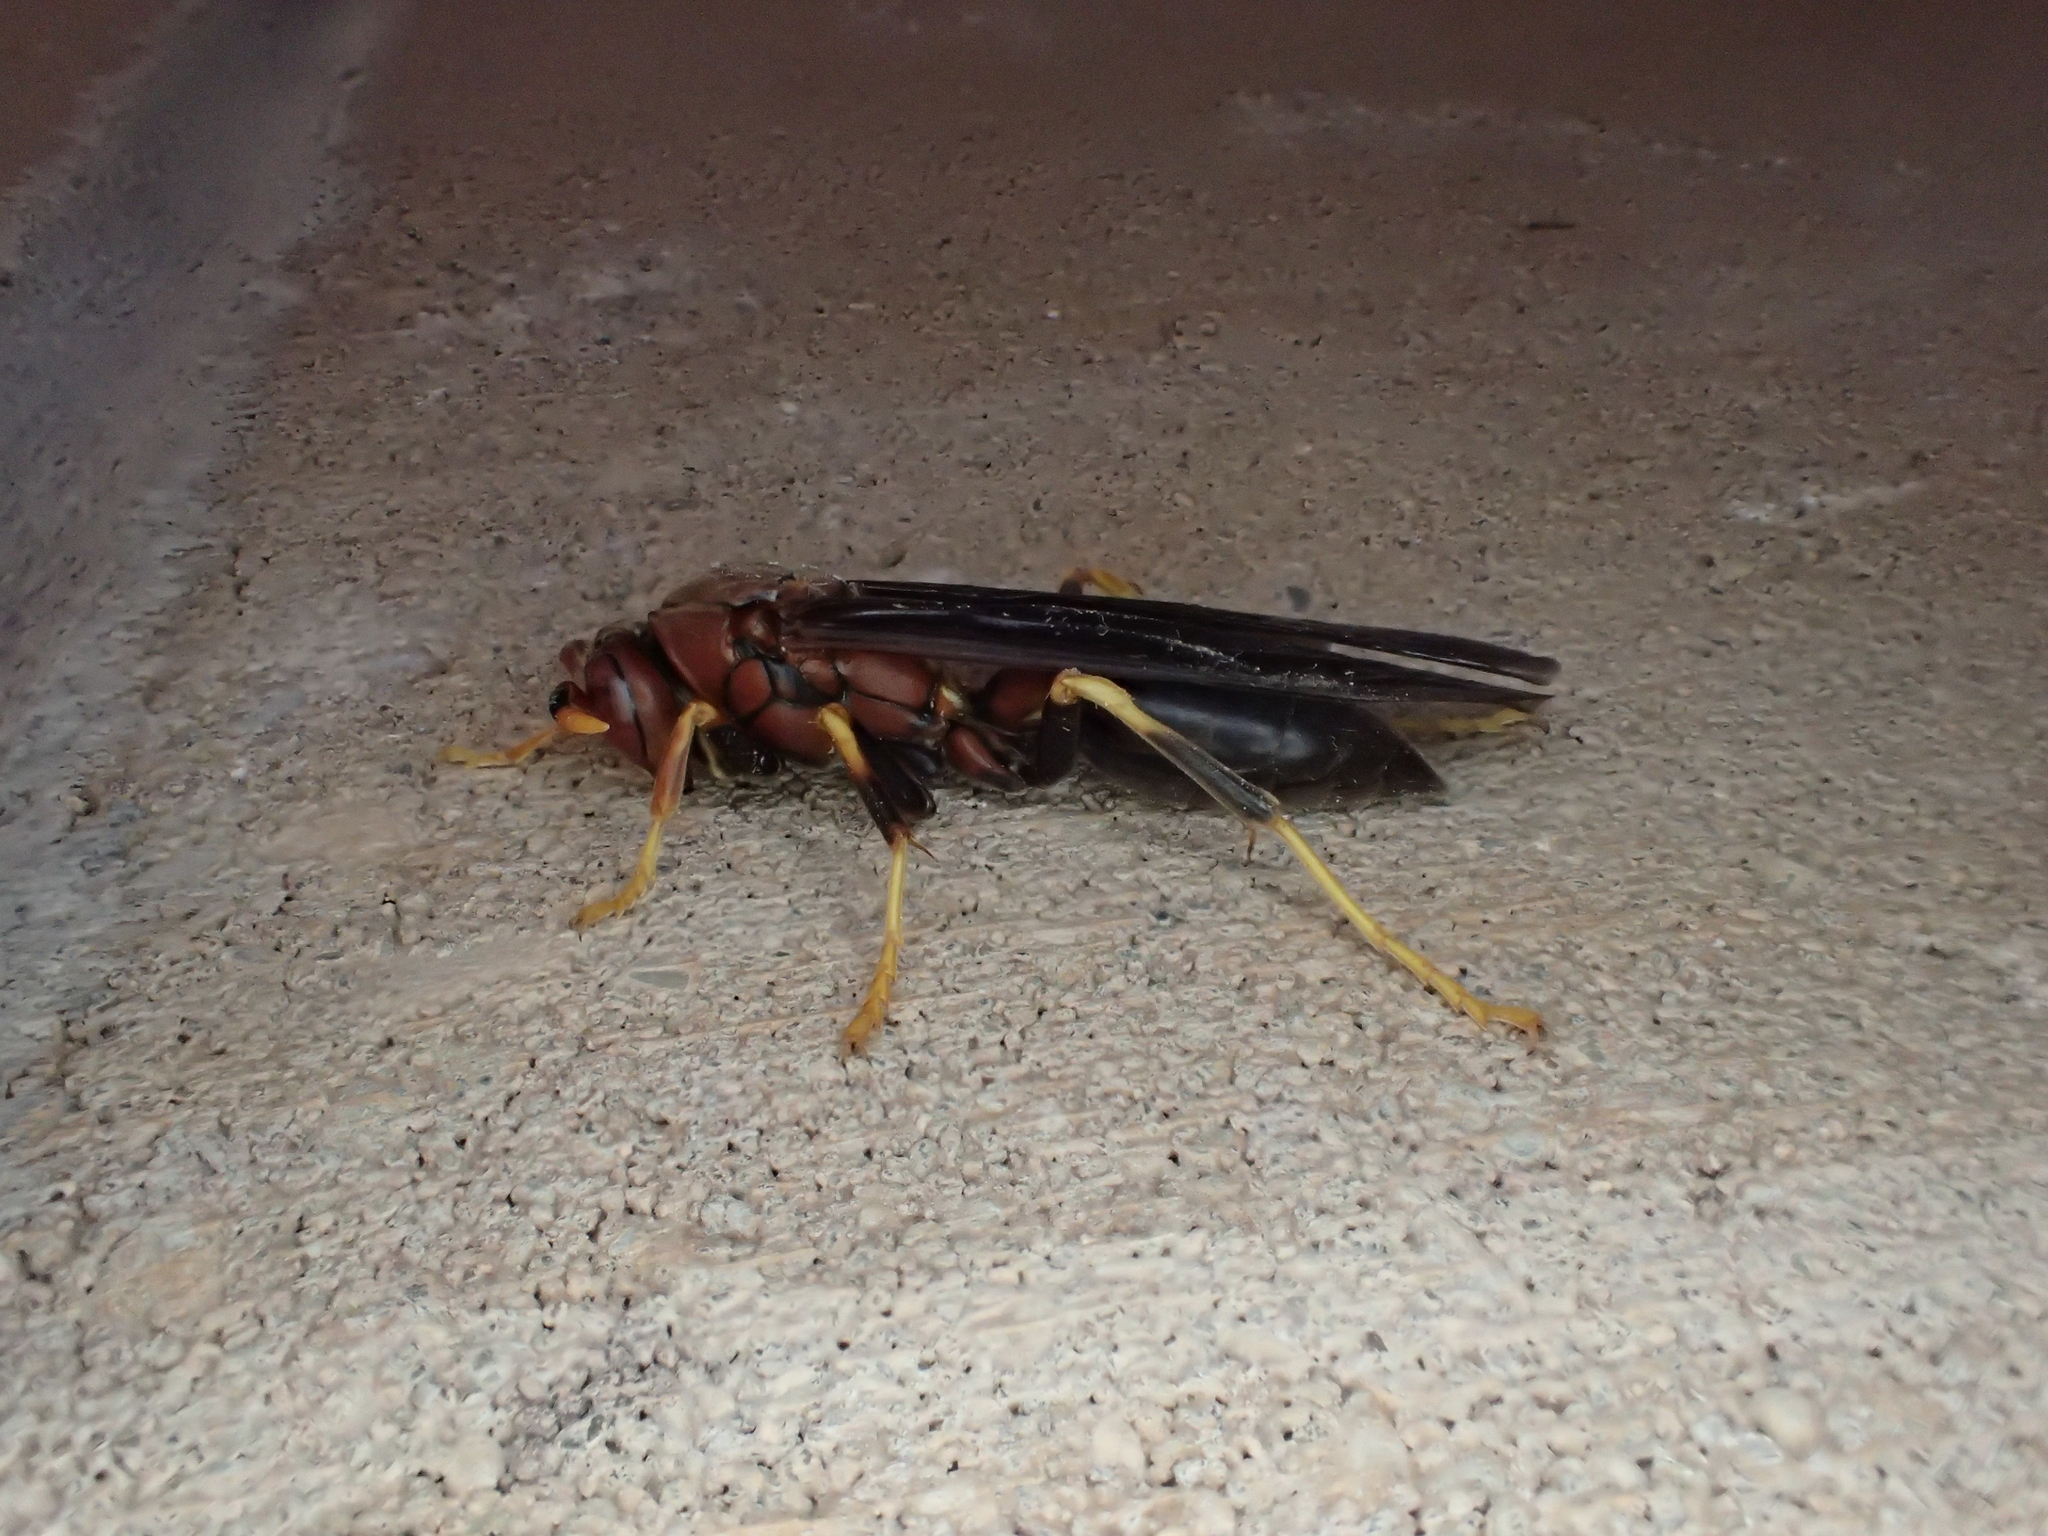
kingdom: Animalia
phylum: Arthropoda
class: Insecta
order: Hymenoptera
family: Eumenidae
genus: Polistes
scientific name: Polistes annularis
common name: Ringed paper wasp
